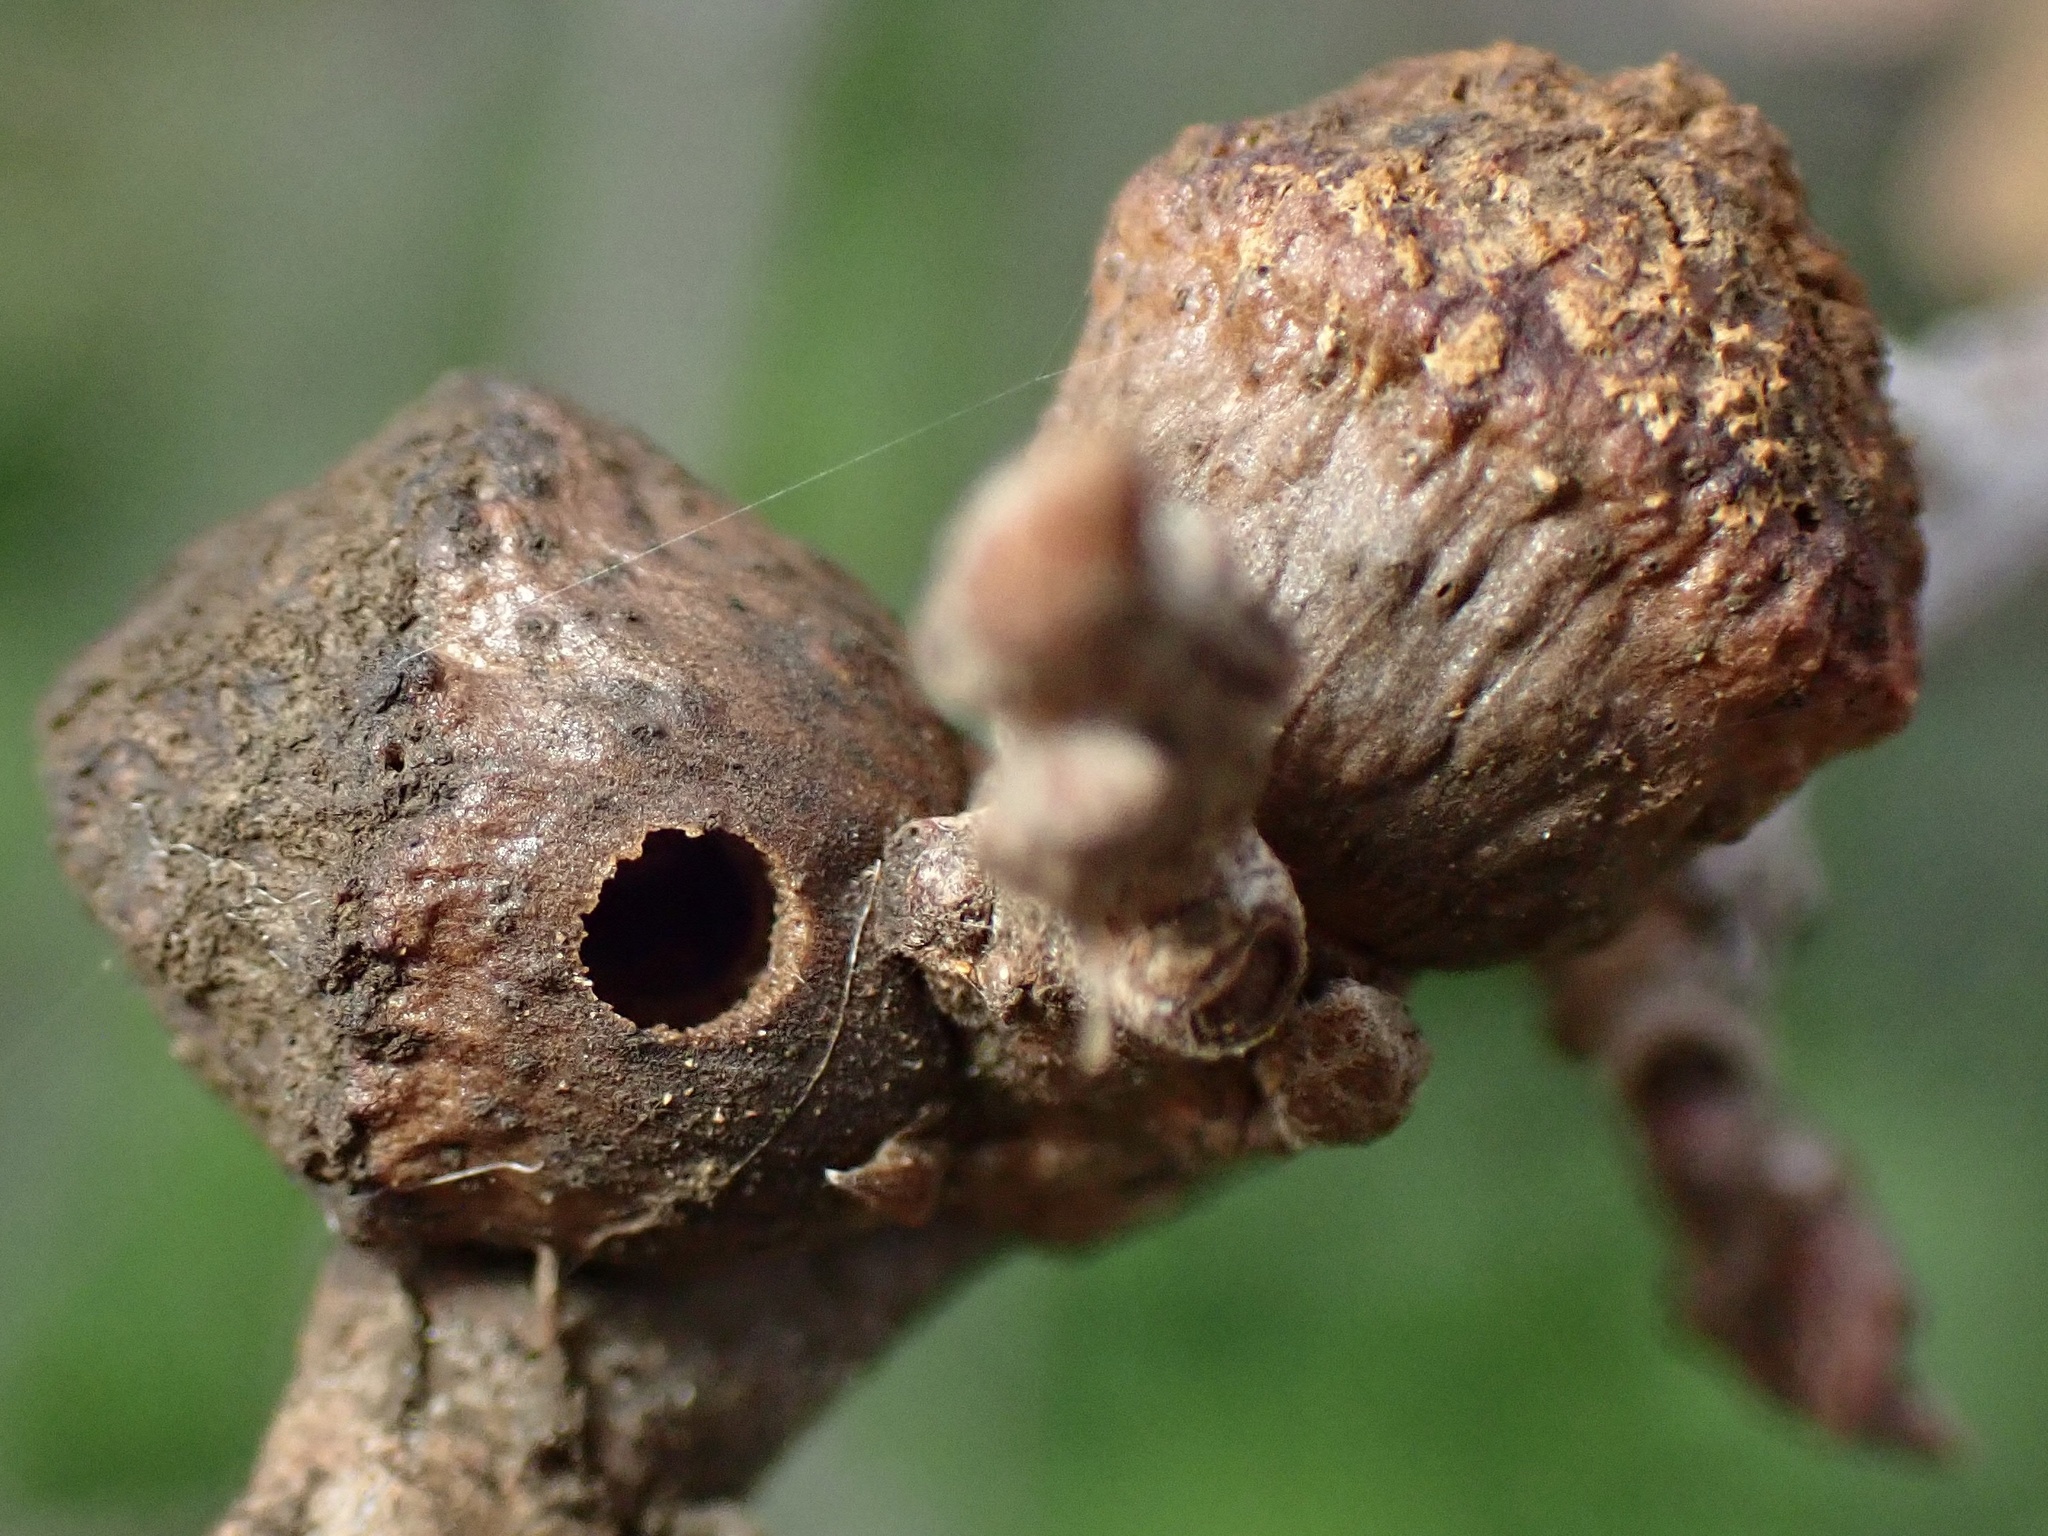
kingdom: Animalia
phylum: Arthropoda
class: Insecta
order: Hymenoptera
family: Cynipidae
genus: Disholcaspis
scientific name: Disholcaspis
